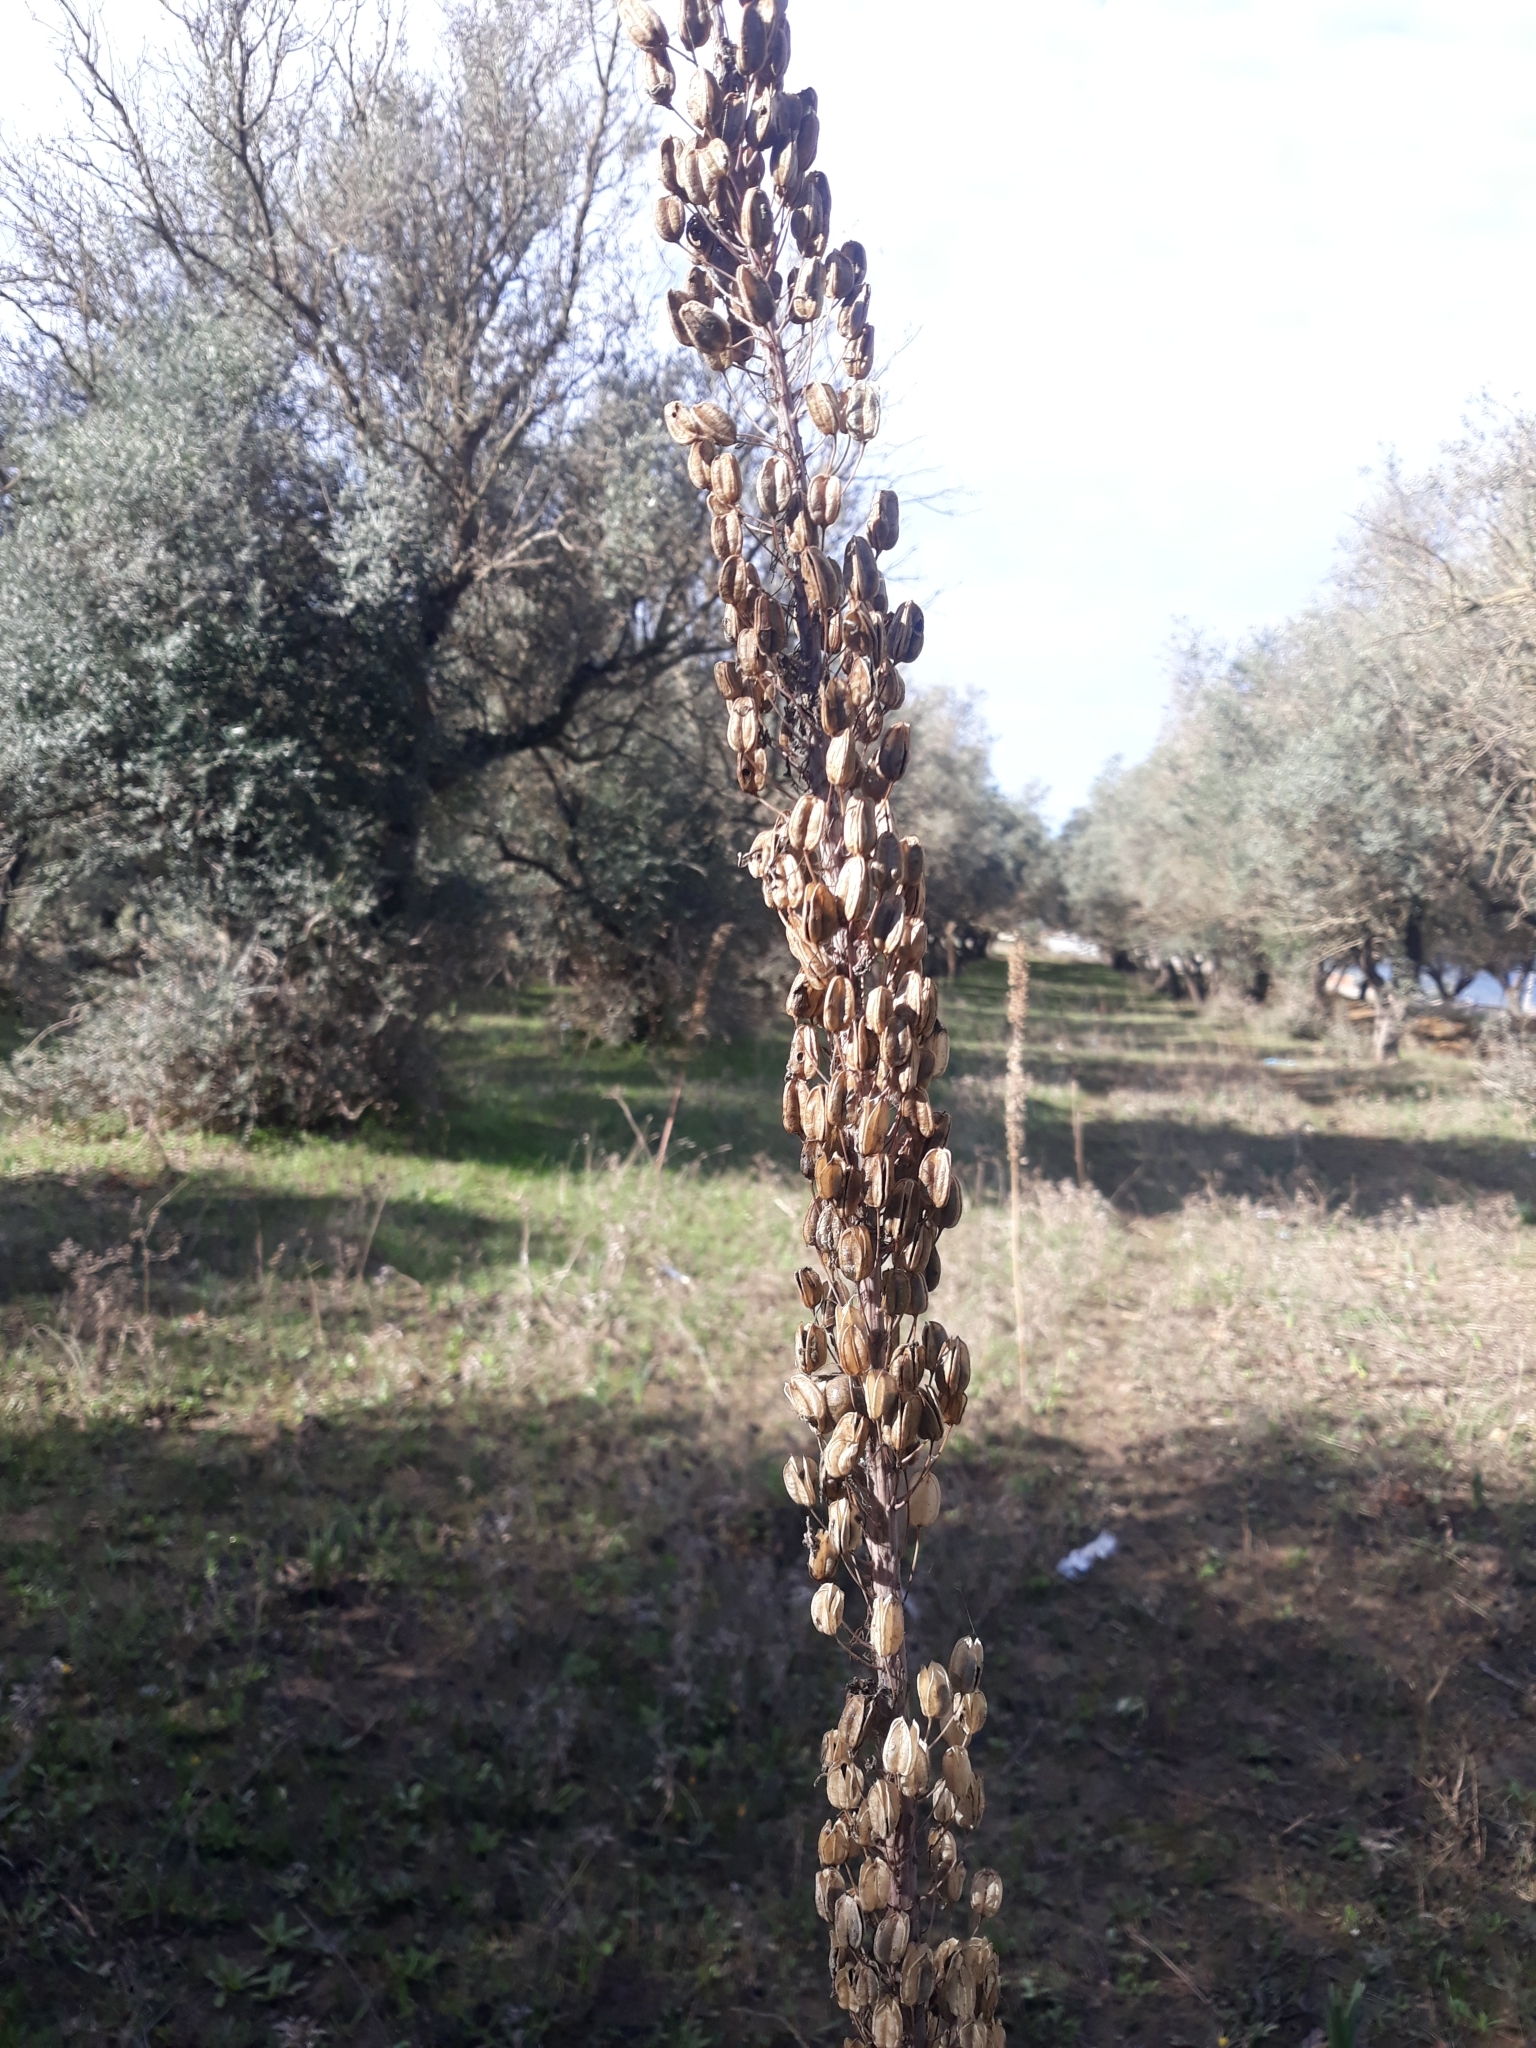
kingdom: Plantae
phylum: Tracheophyta
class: Liliopsida
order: Asparagales
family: Asparagaceae
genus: Drimia
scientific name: Drimia numidica
